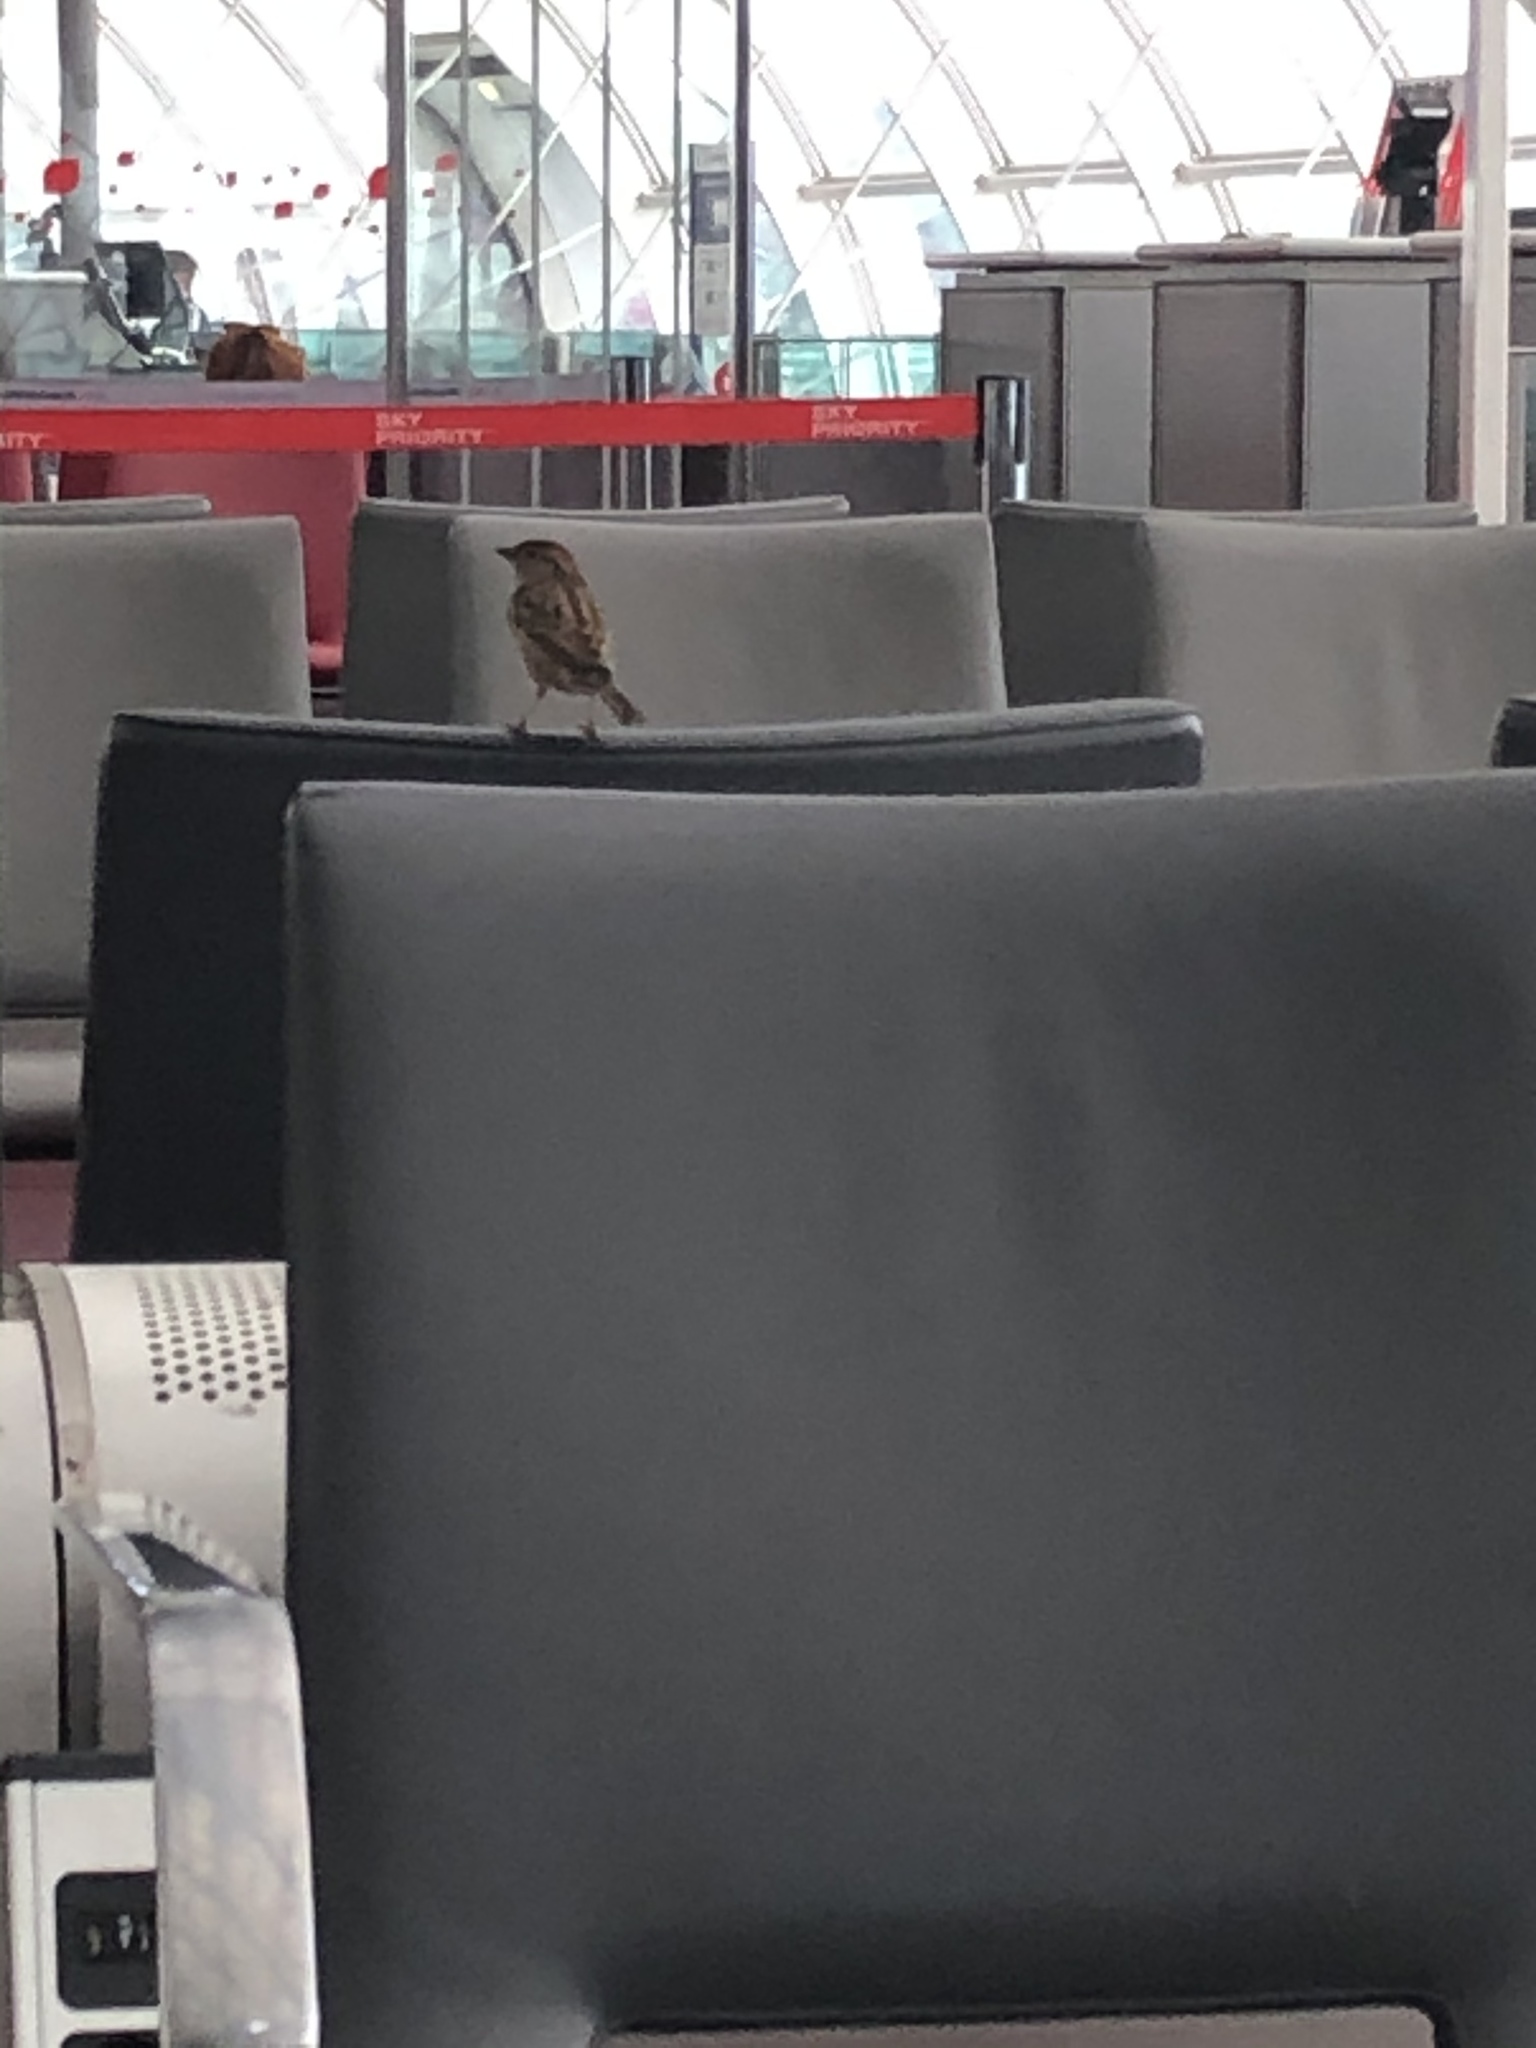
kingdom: Animalia
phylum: Chordata
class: Aves
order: Passeriformes
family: Passeridae
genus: Passer
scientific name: Passer domesticus
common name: House sparrow
